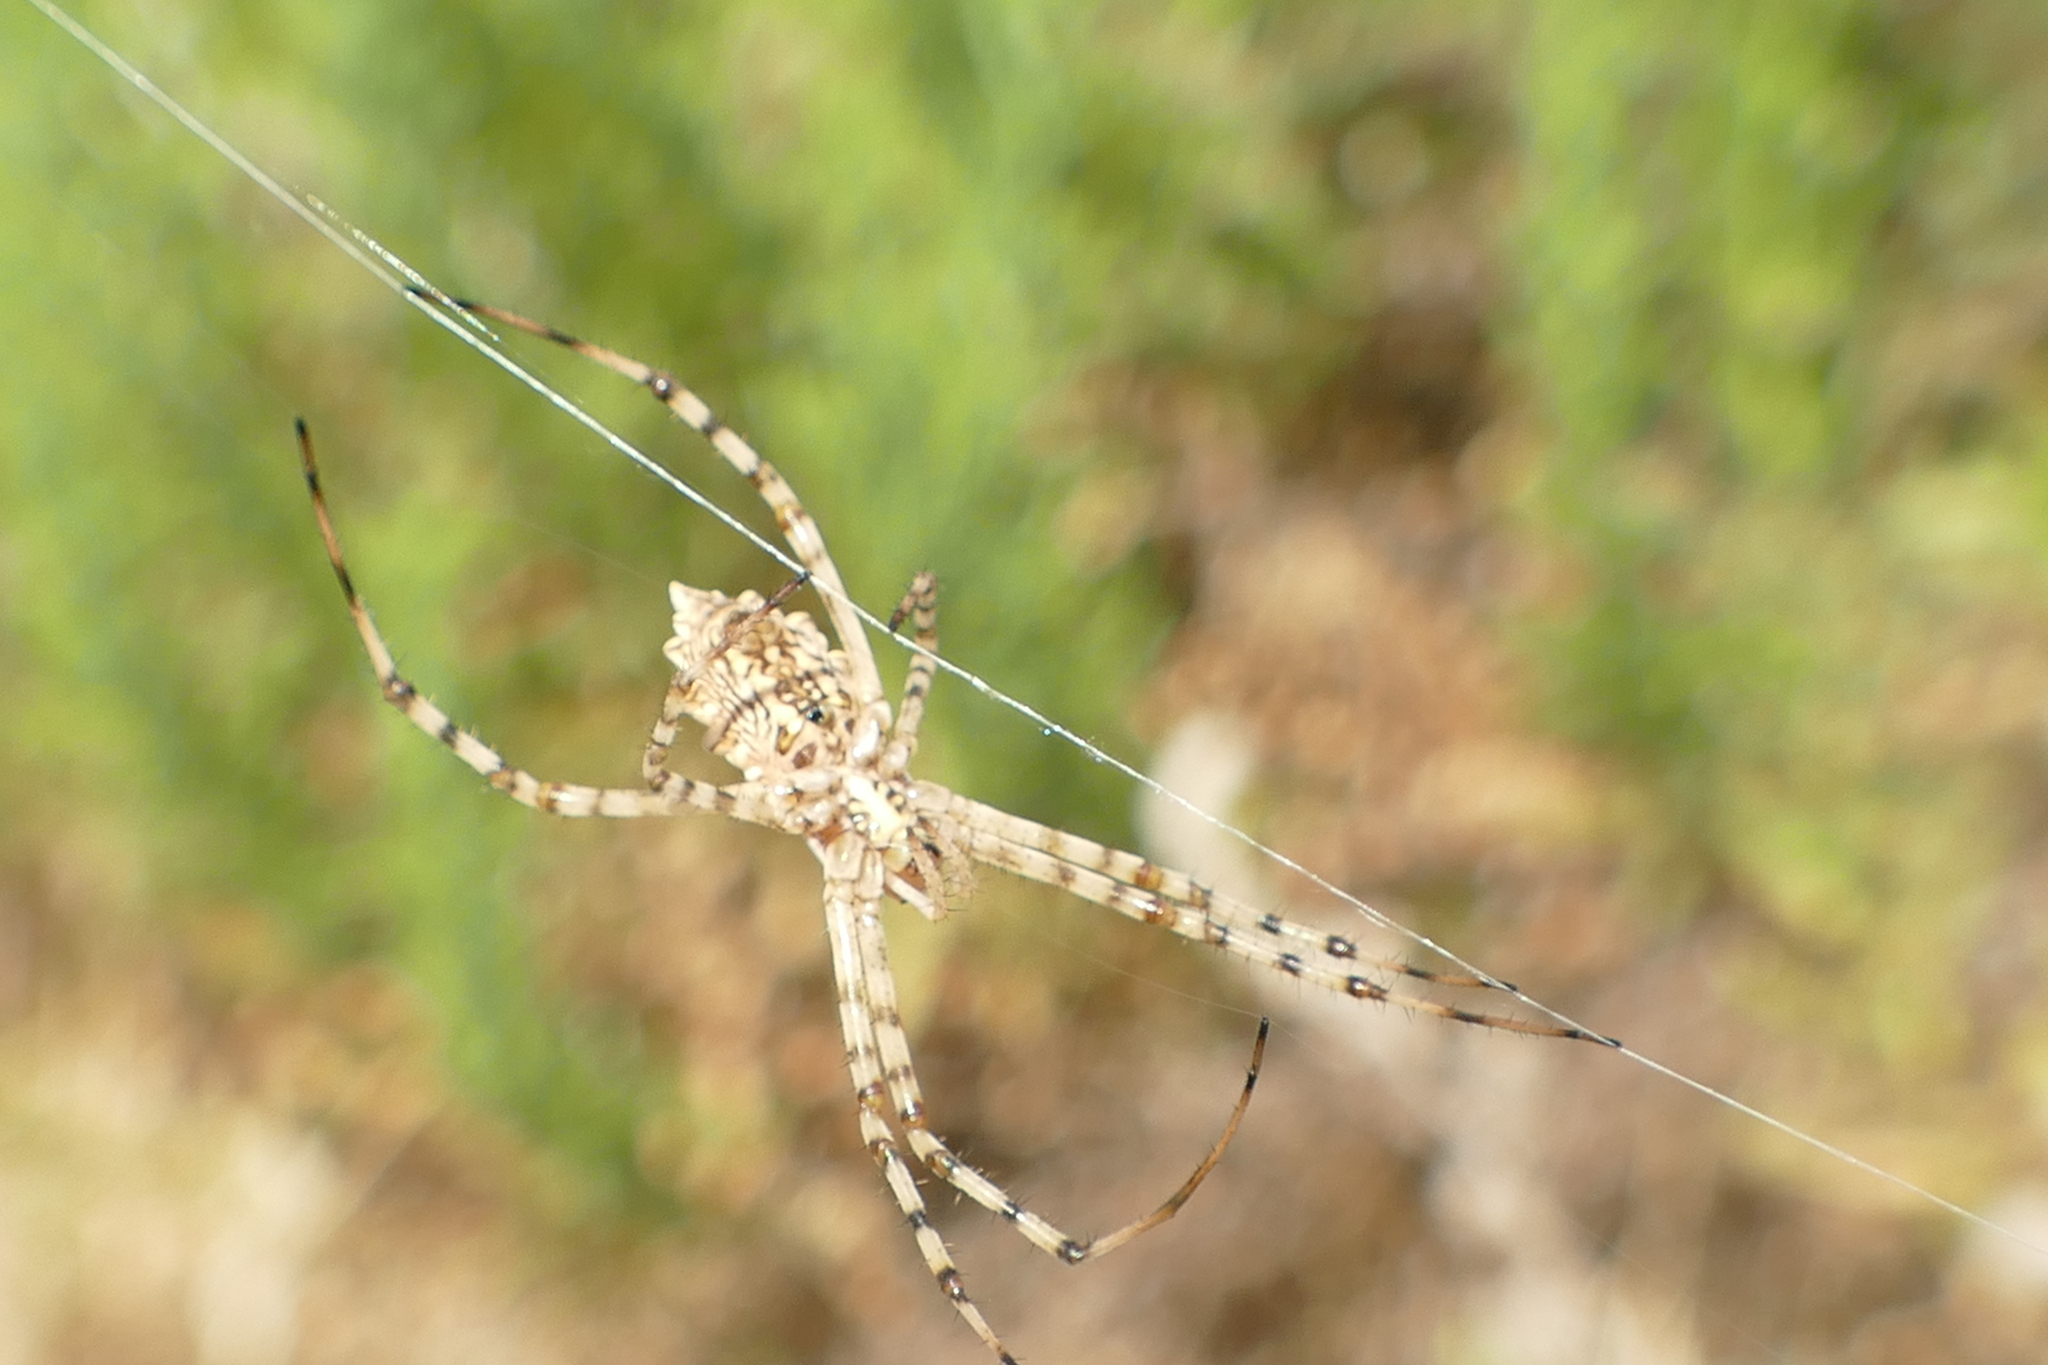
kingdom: Animalia
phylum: Arthropoda
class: Arachnida
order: Araneae
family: Araneidae
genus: Argiope
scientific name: Argiope lobata
